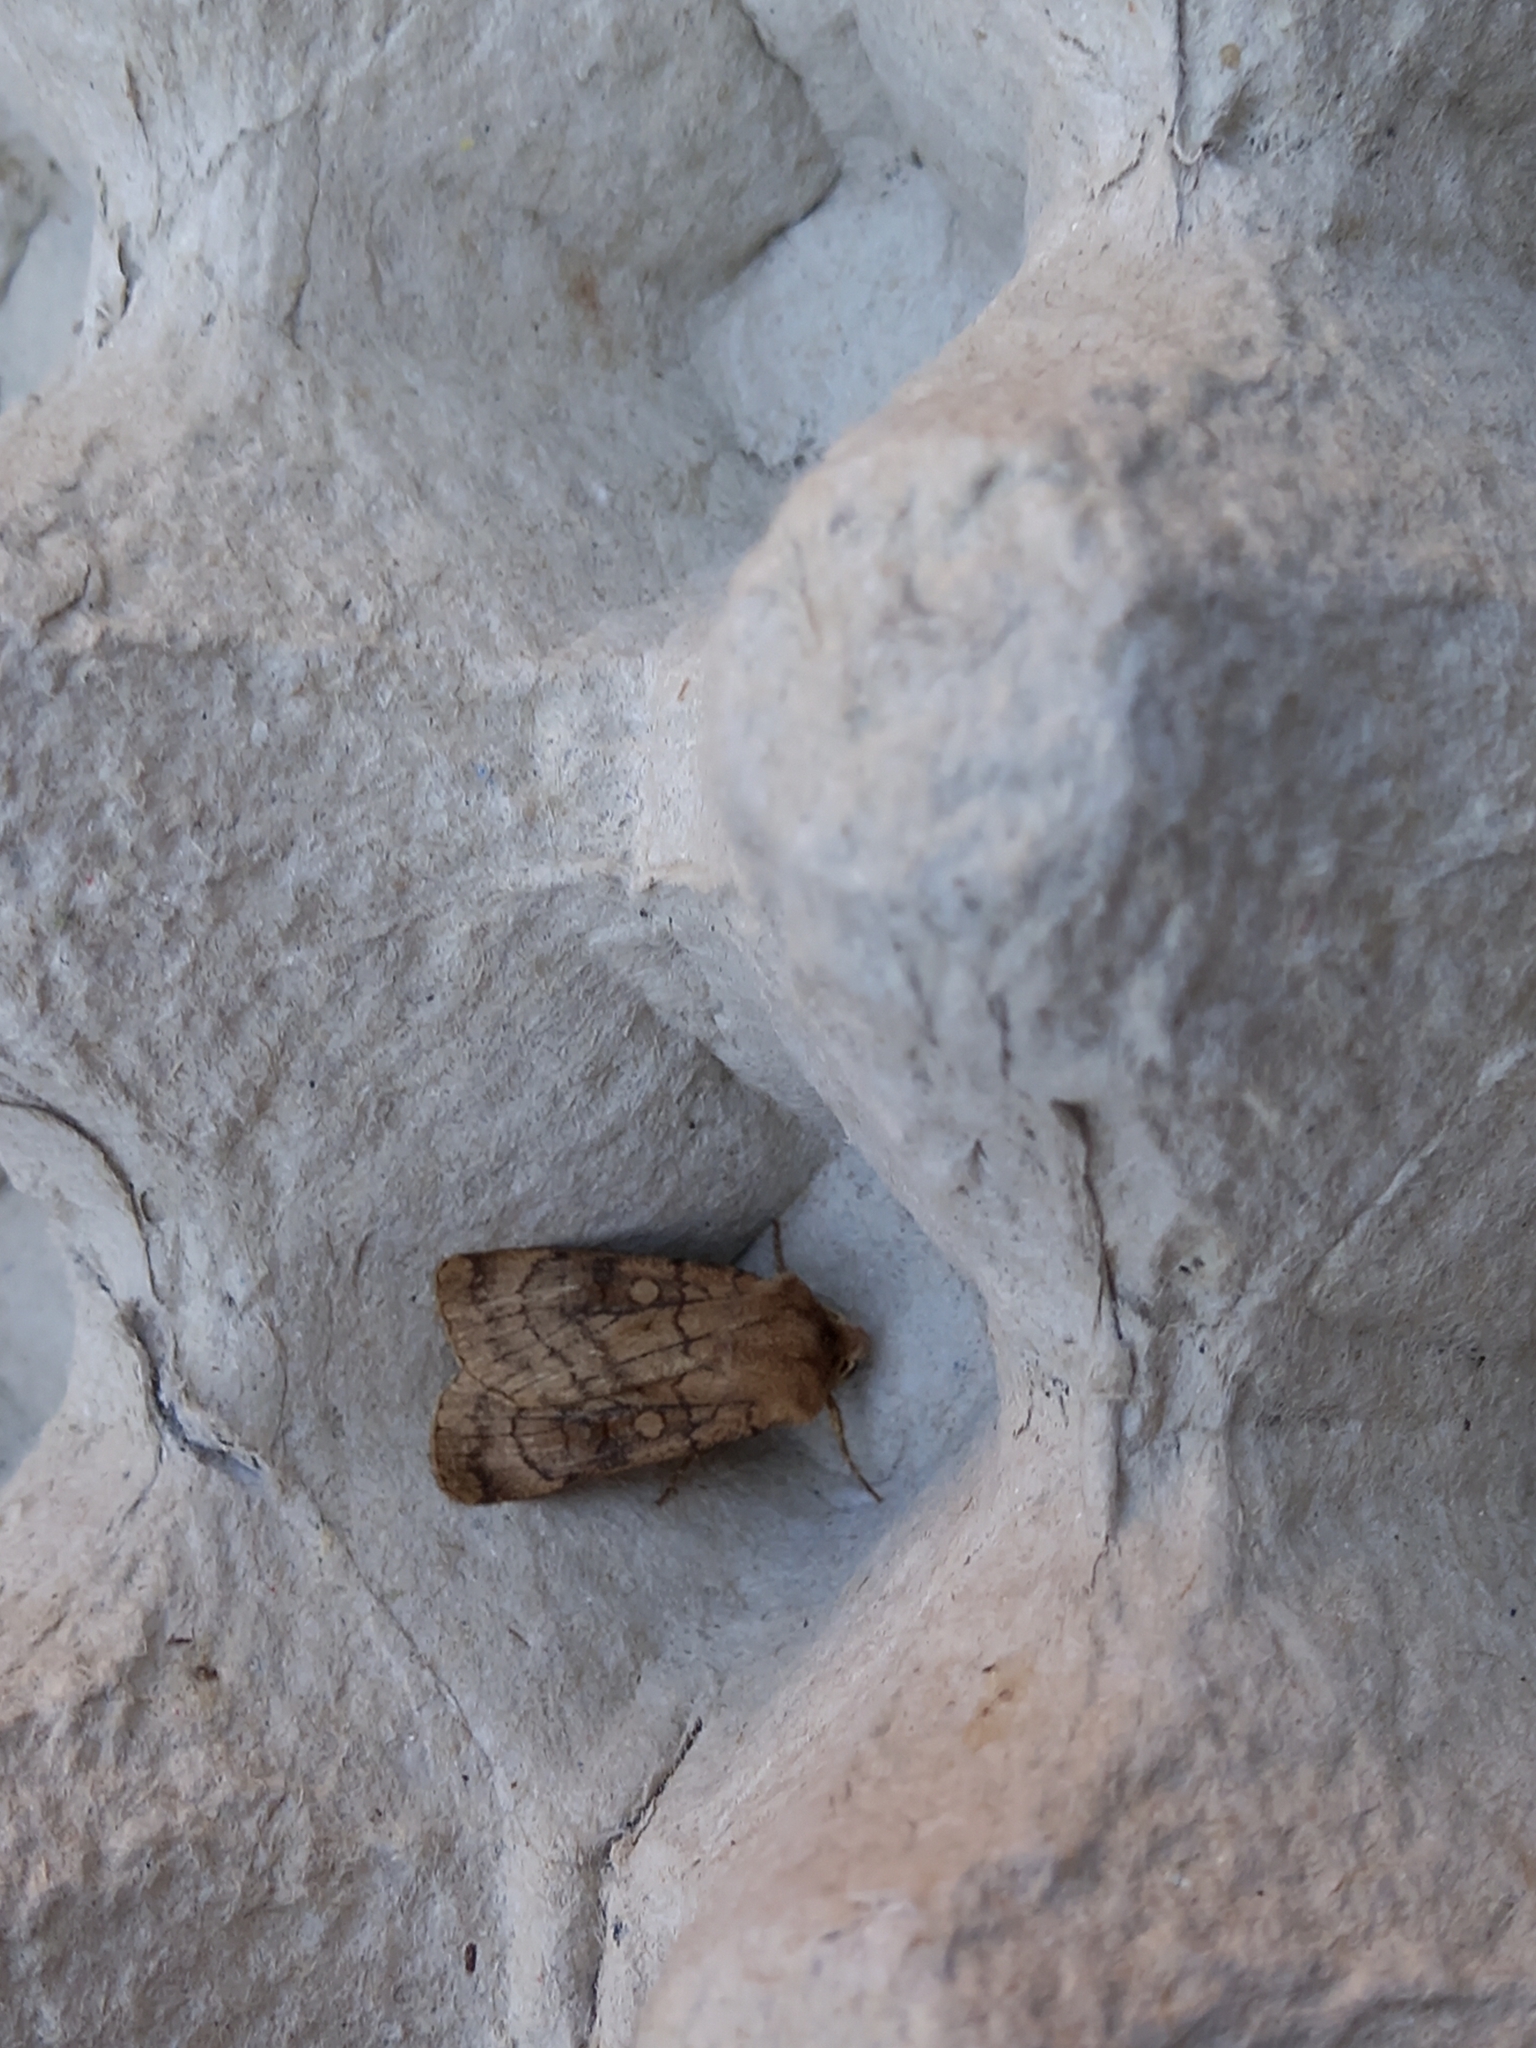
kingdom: Animalia
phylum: Arthropoda
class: Insecta
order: Lepidoptera
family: Noctuidae
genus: Xestia
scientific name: Xestia sexstrigata
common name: Six-striped rustic
